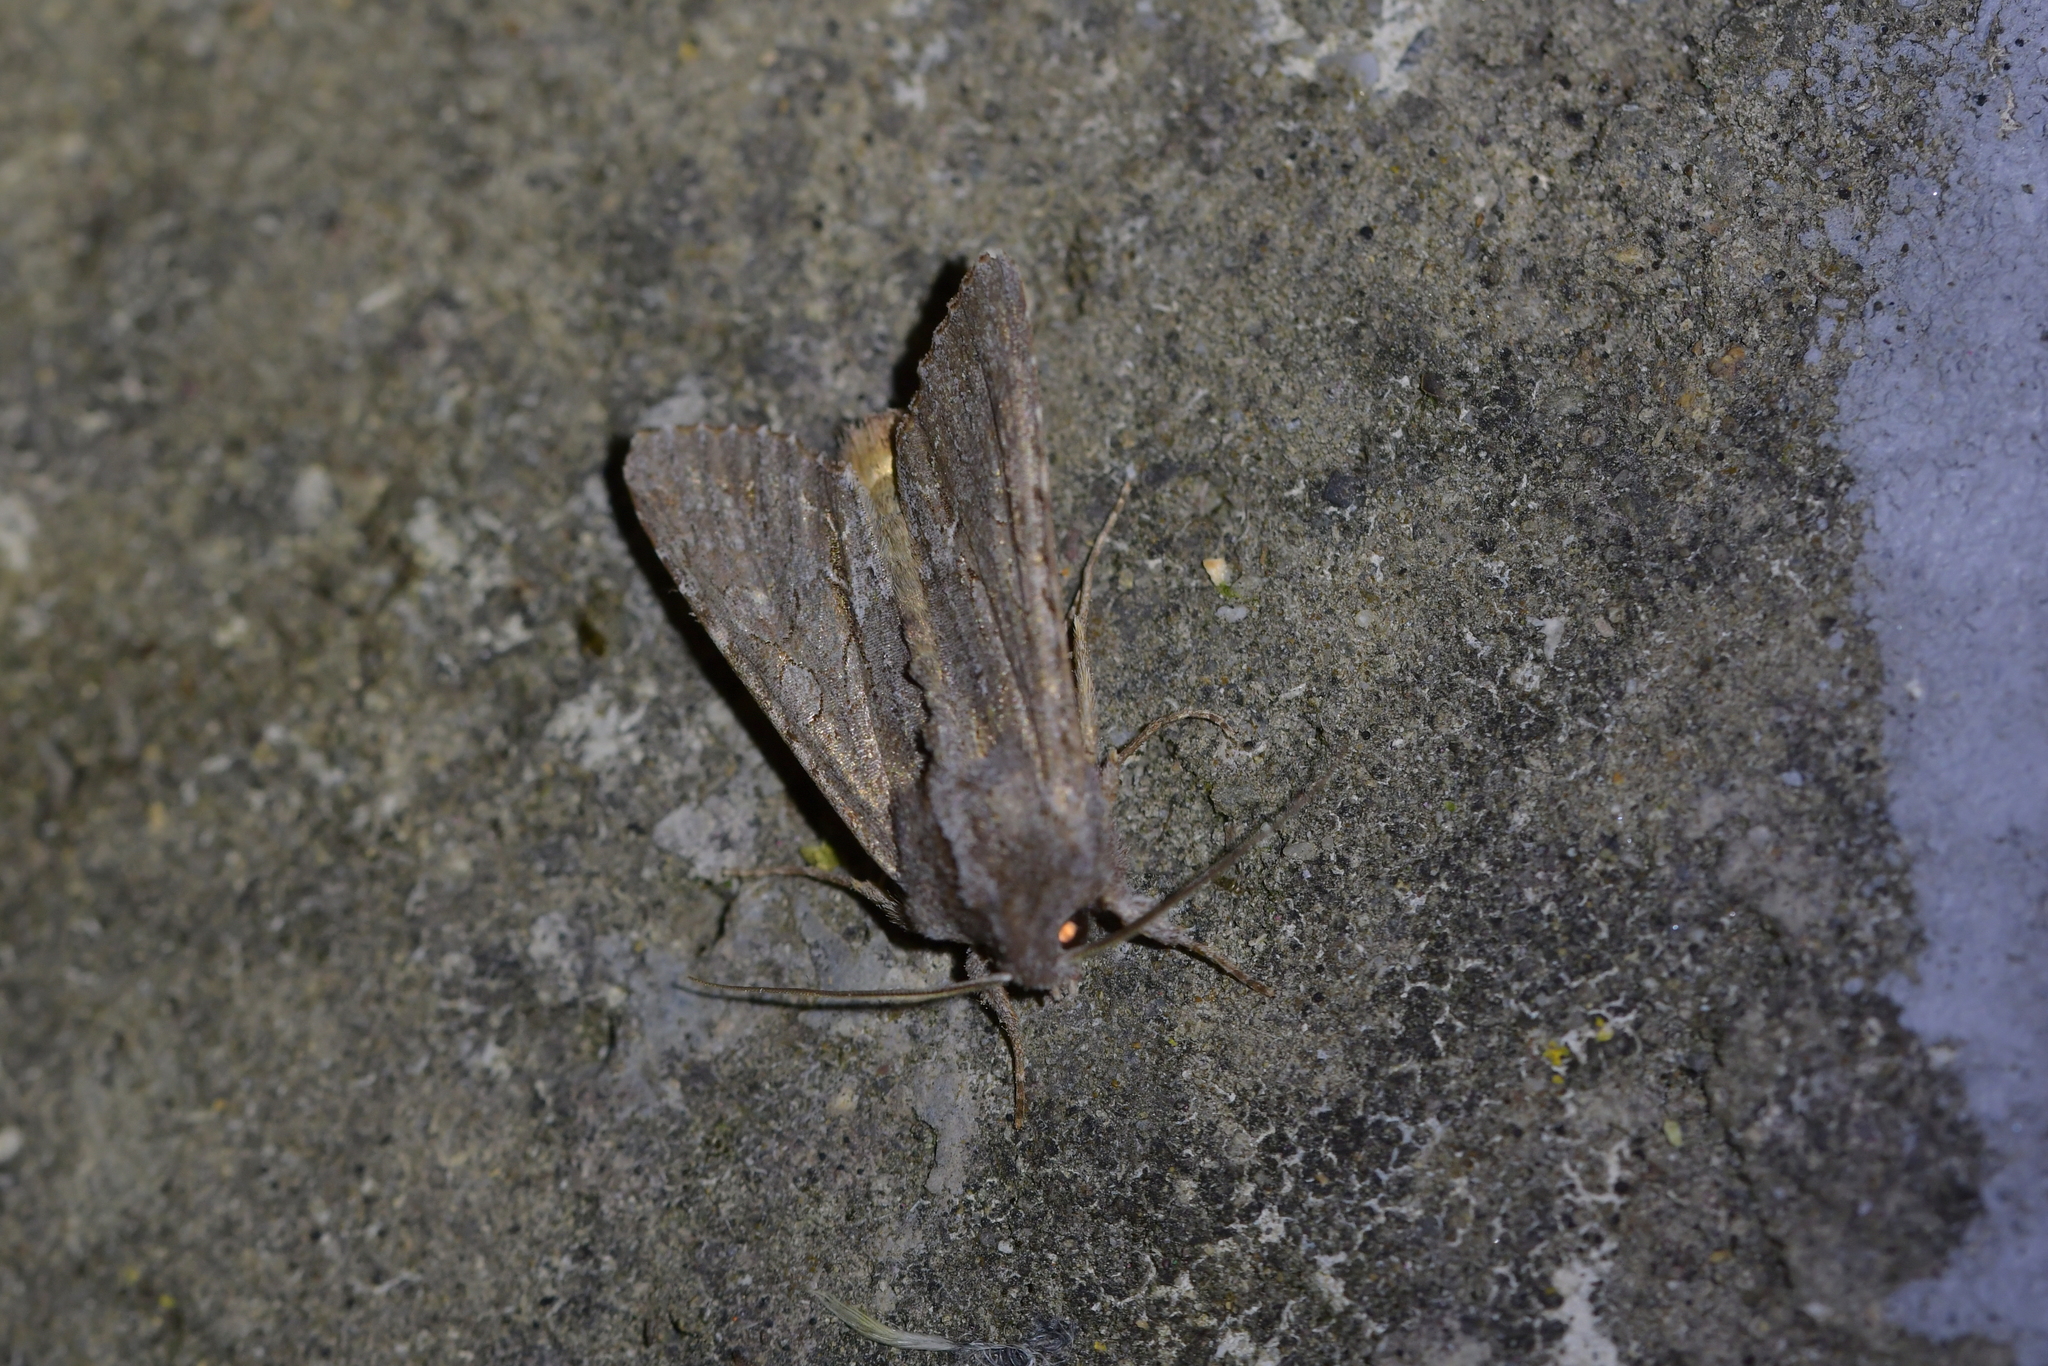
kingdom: Animalia
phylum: Arthropoda
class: Insecta
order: Lepidoptera
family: Noctuidae
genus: Ichneutica
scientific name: Ichneutica
